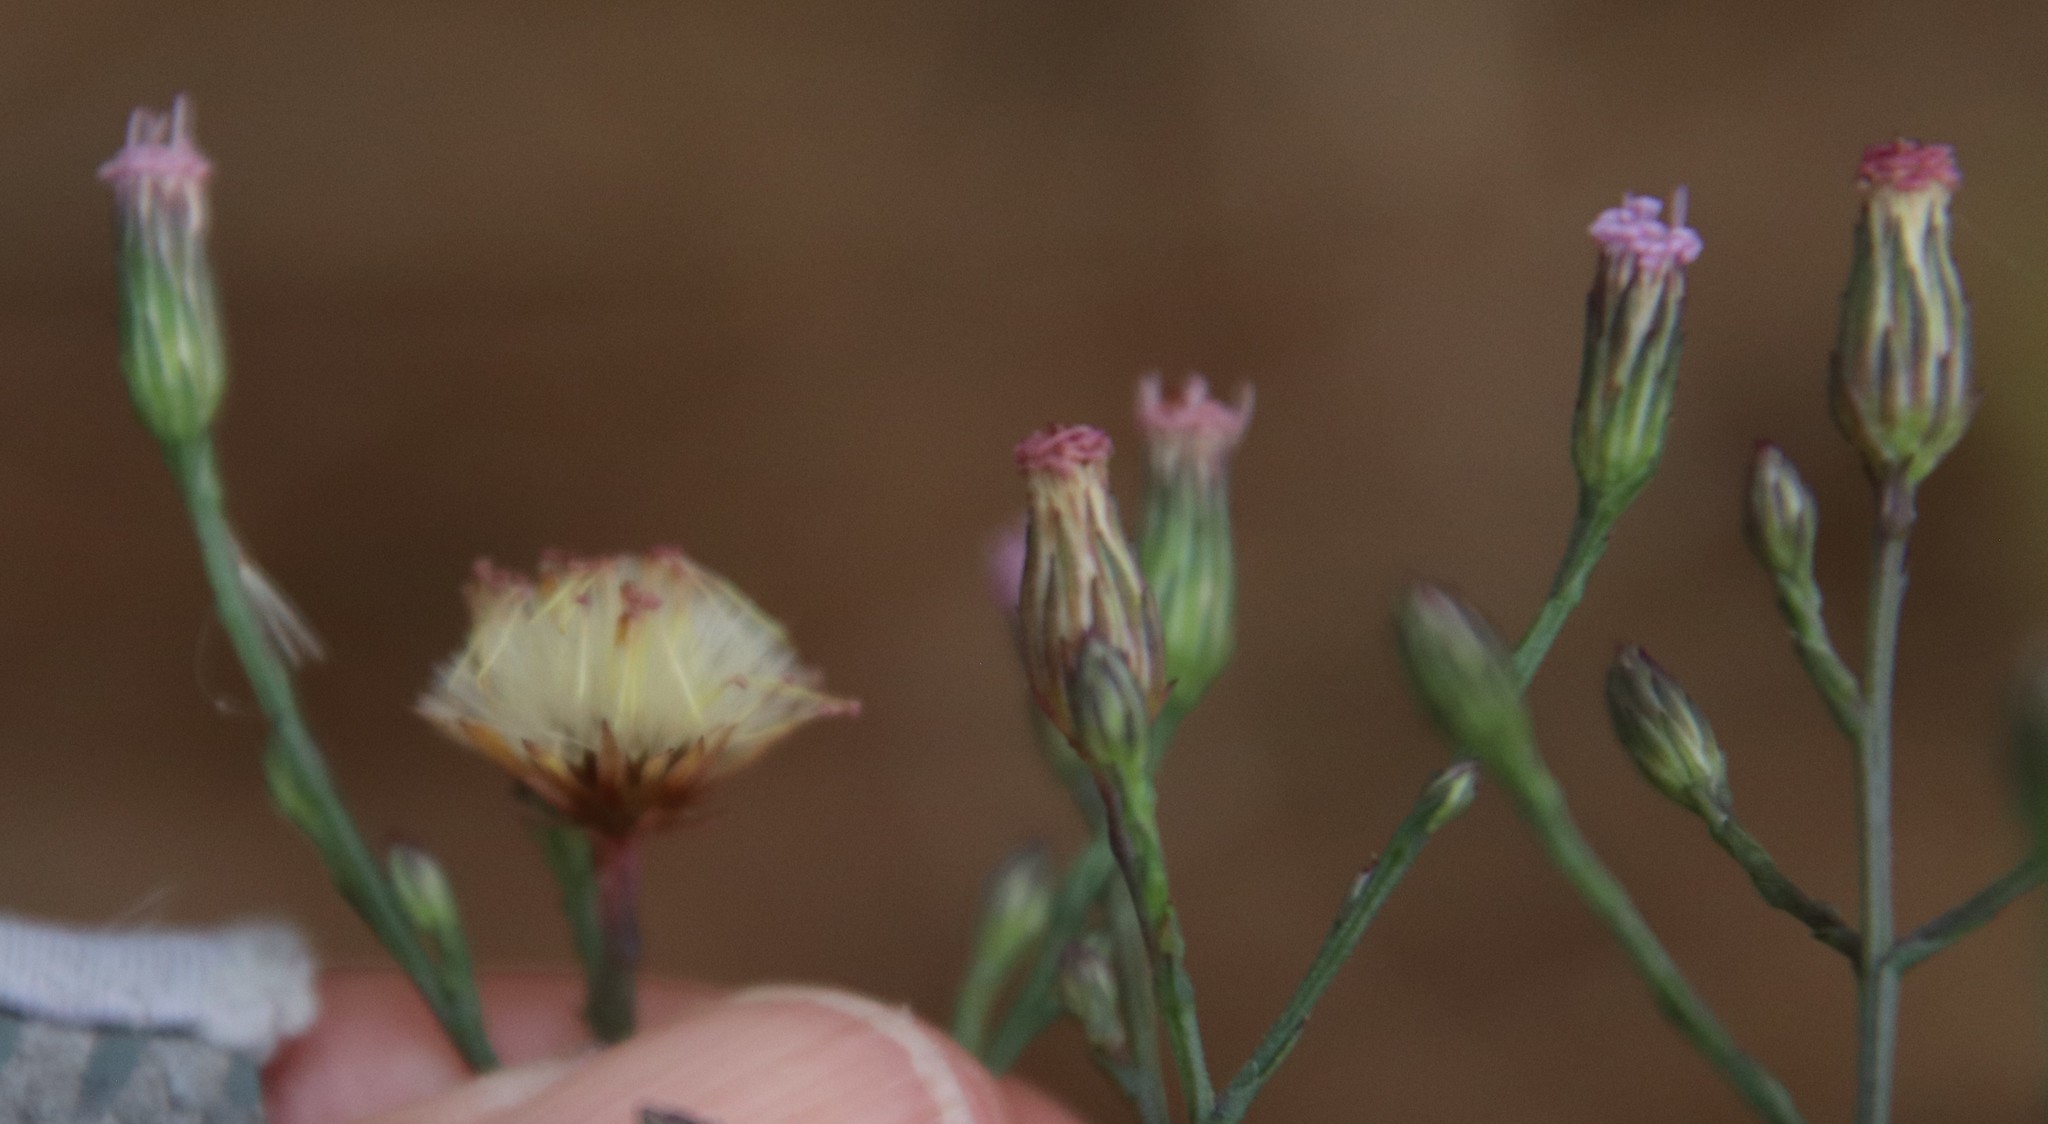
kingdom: Plantae
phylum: Tracheophyta
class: Magnoliopsida
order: Asterales
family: Asteraceae
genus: Symphyotrichum
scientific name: Symphyotrichum expansum
